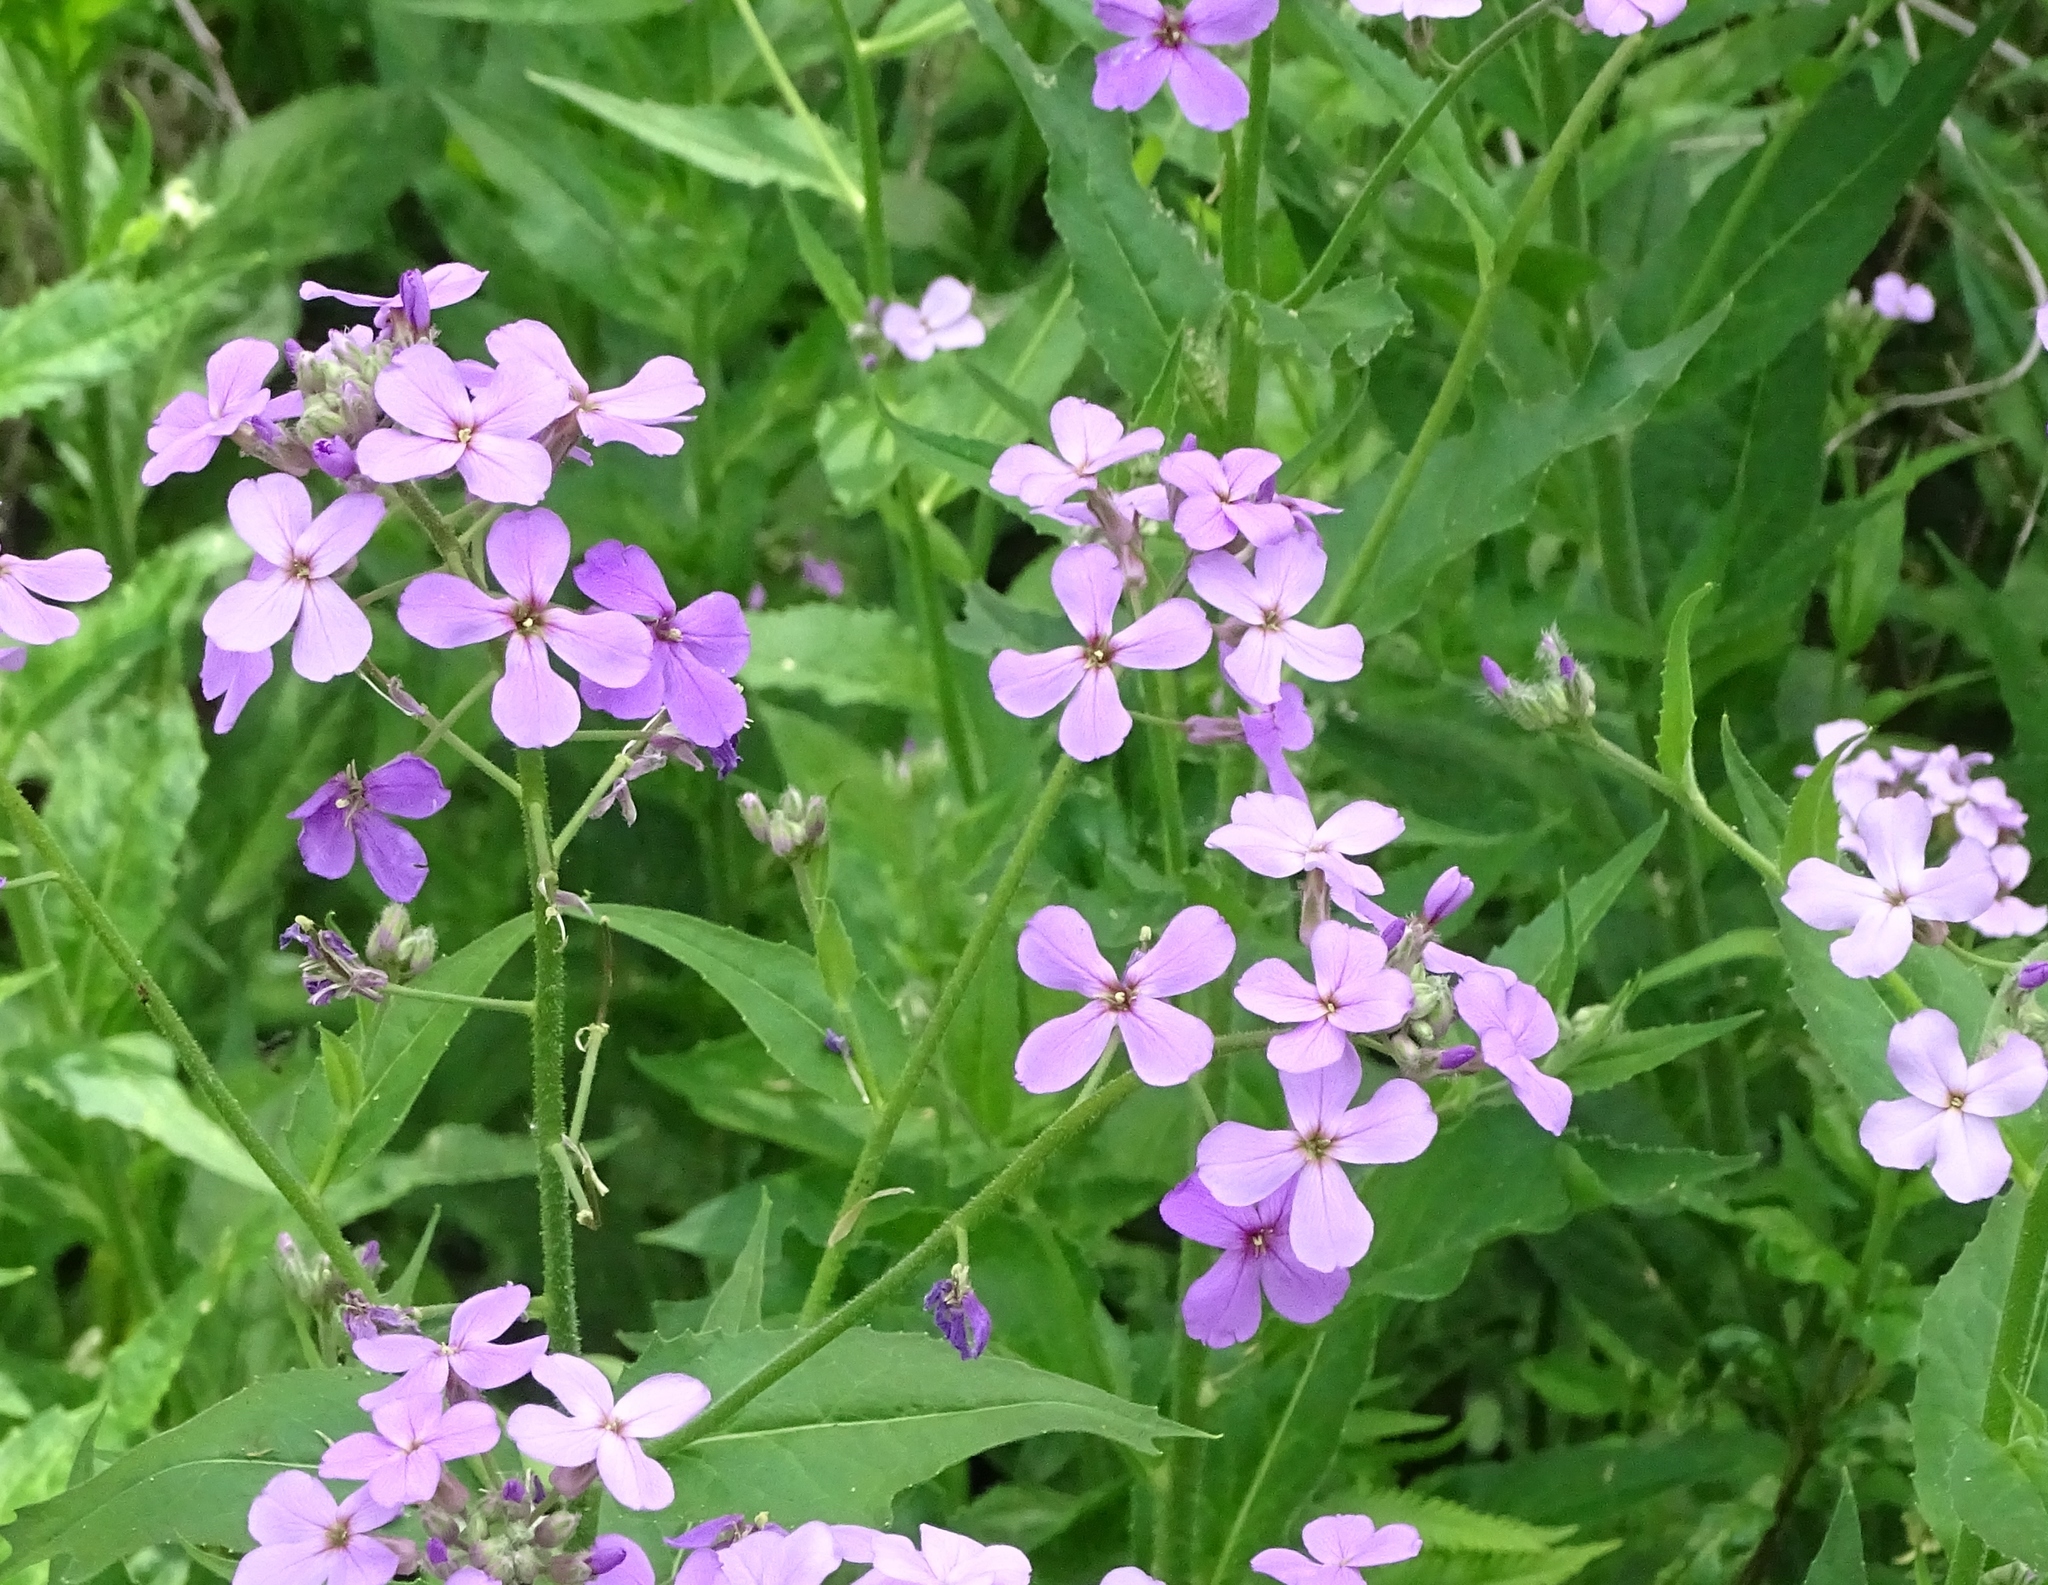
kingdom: Plantae
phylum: Tracheophyta
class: Magnoliopsida
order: Brassicales
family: Brassicaceae
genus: Hesperis
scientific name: Hesperis matronalis
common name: Dame's-violet
